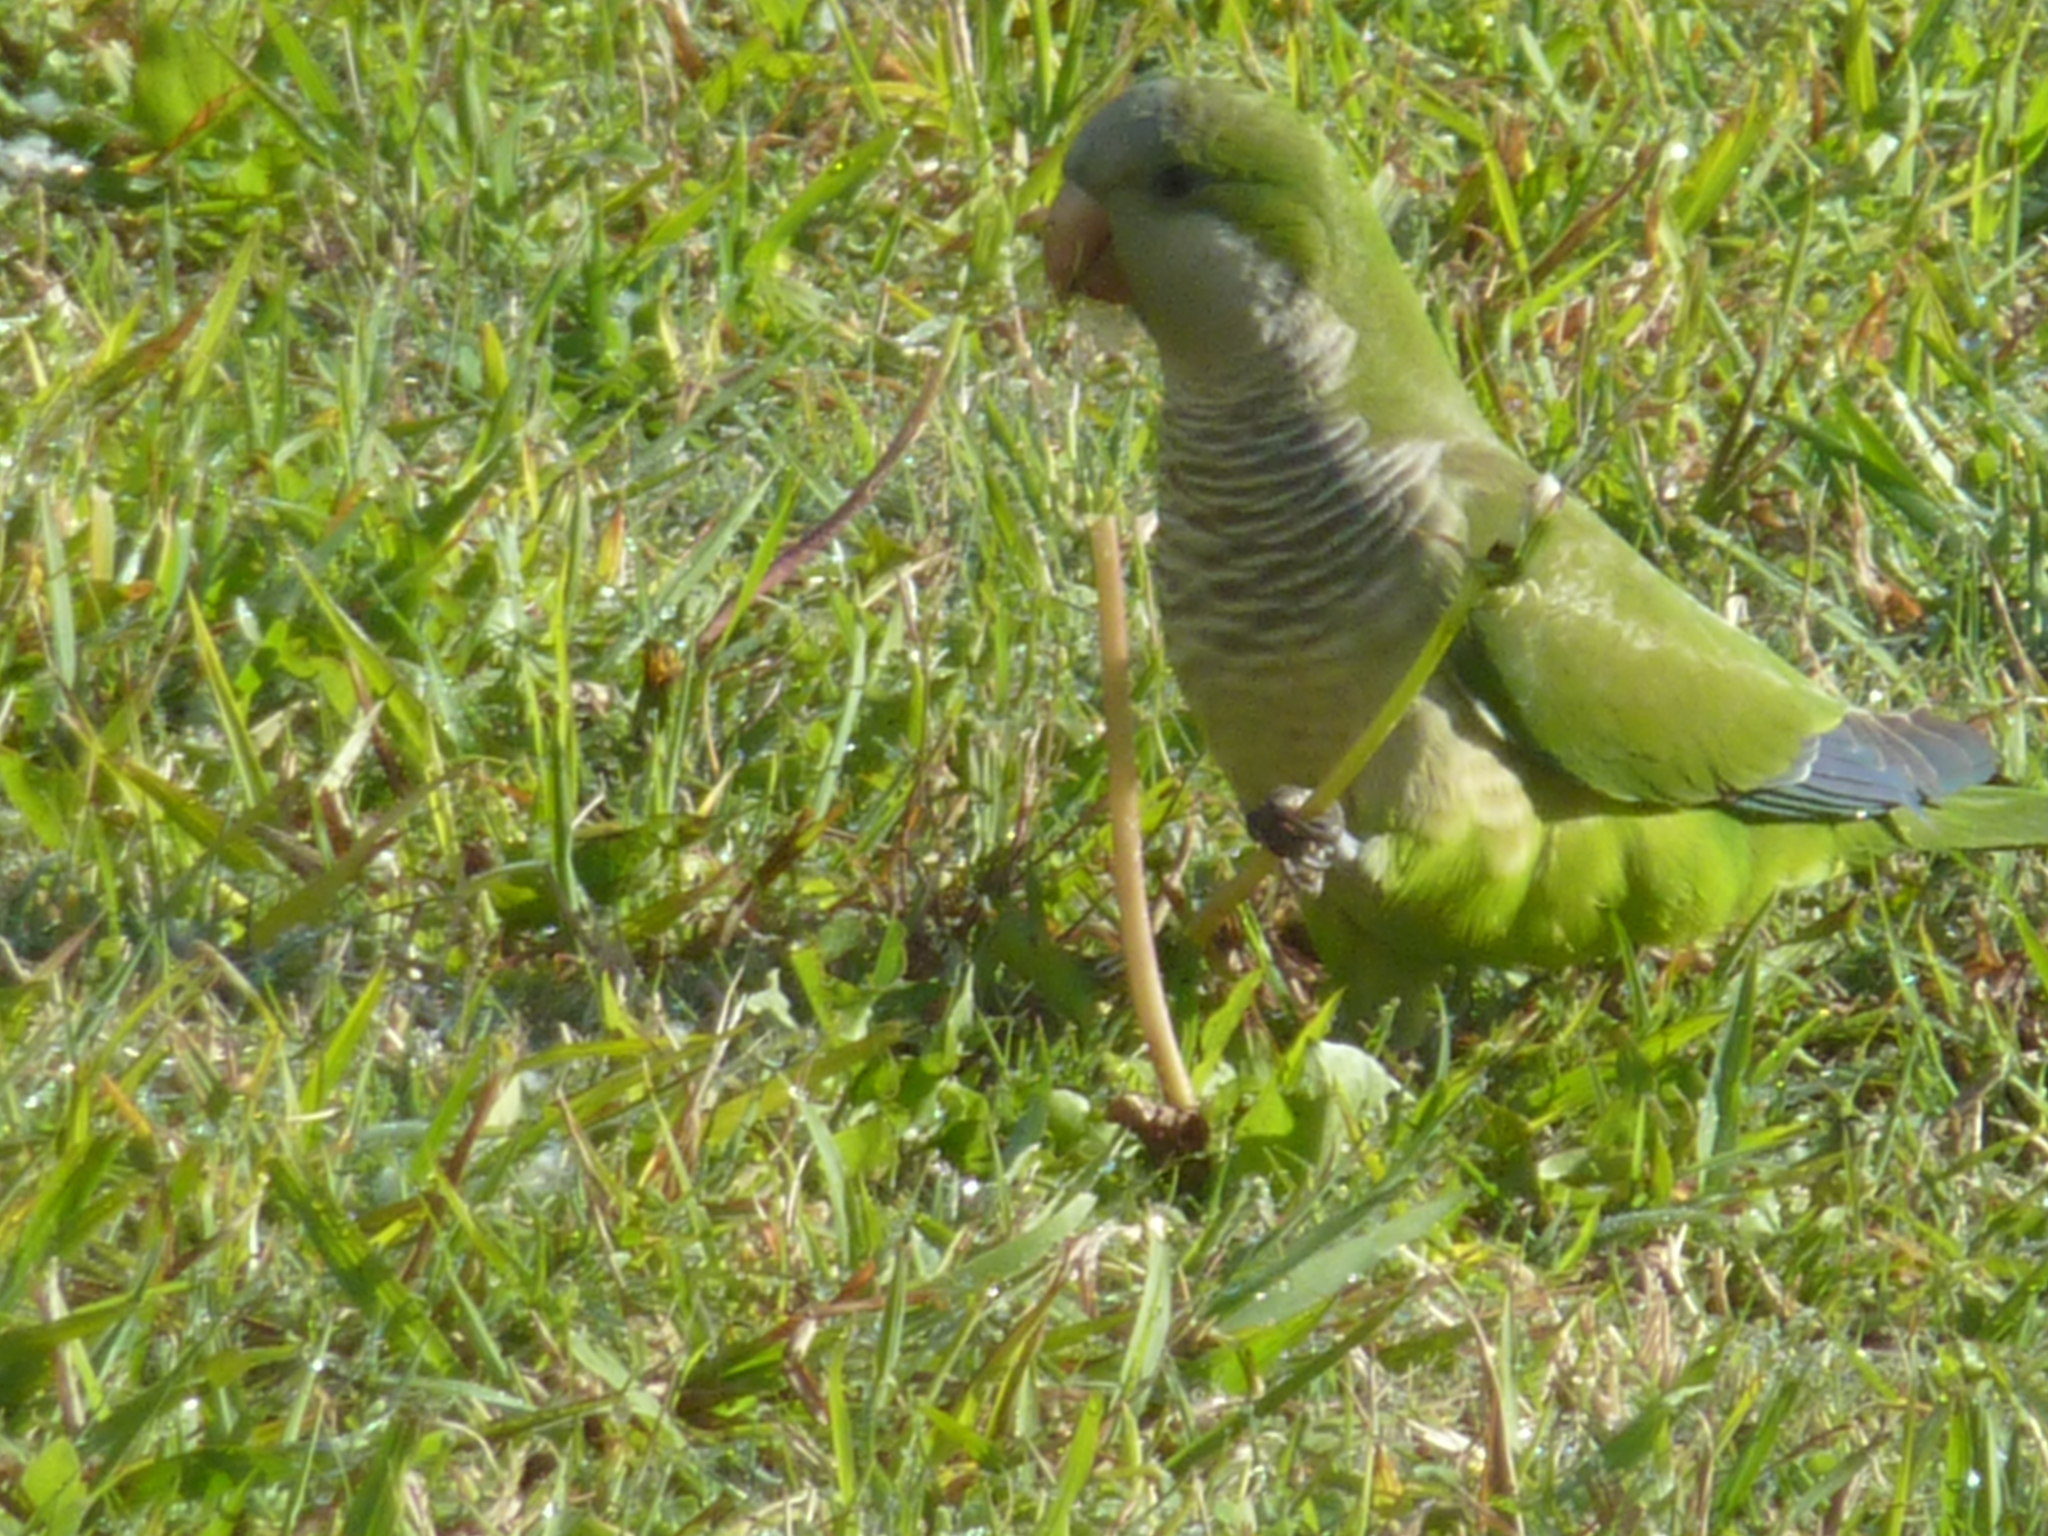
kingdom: Animalia
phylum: Chordata
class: Aves
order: Psittaciformes
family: Psittacidae
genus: Myiopsitta
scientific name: Myiopsitta monachus
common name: Monk parakeet
